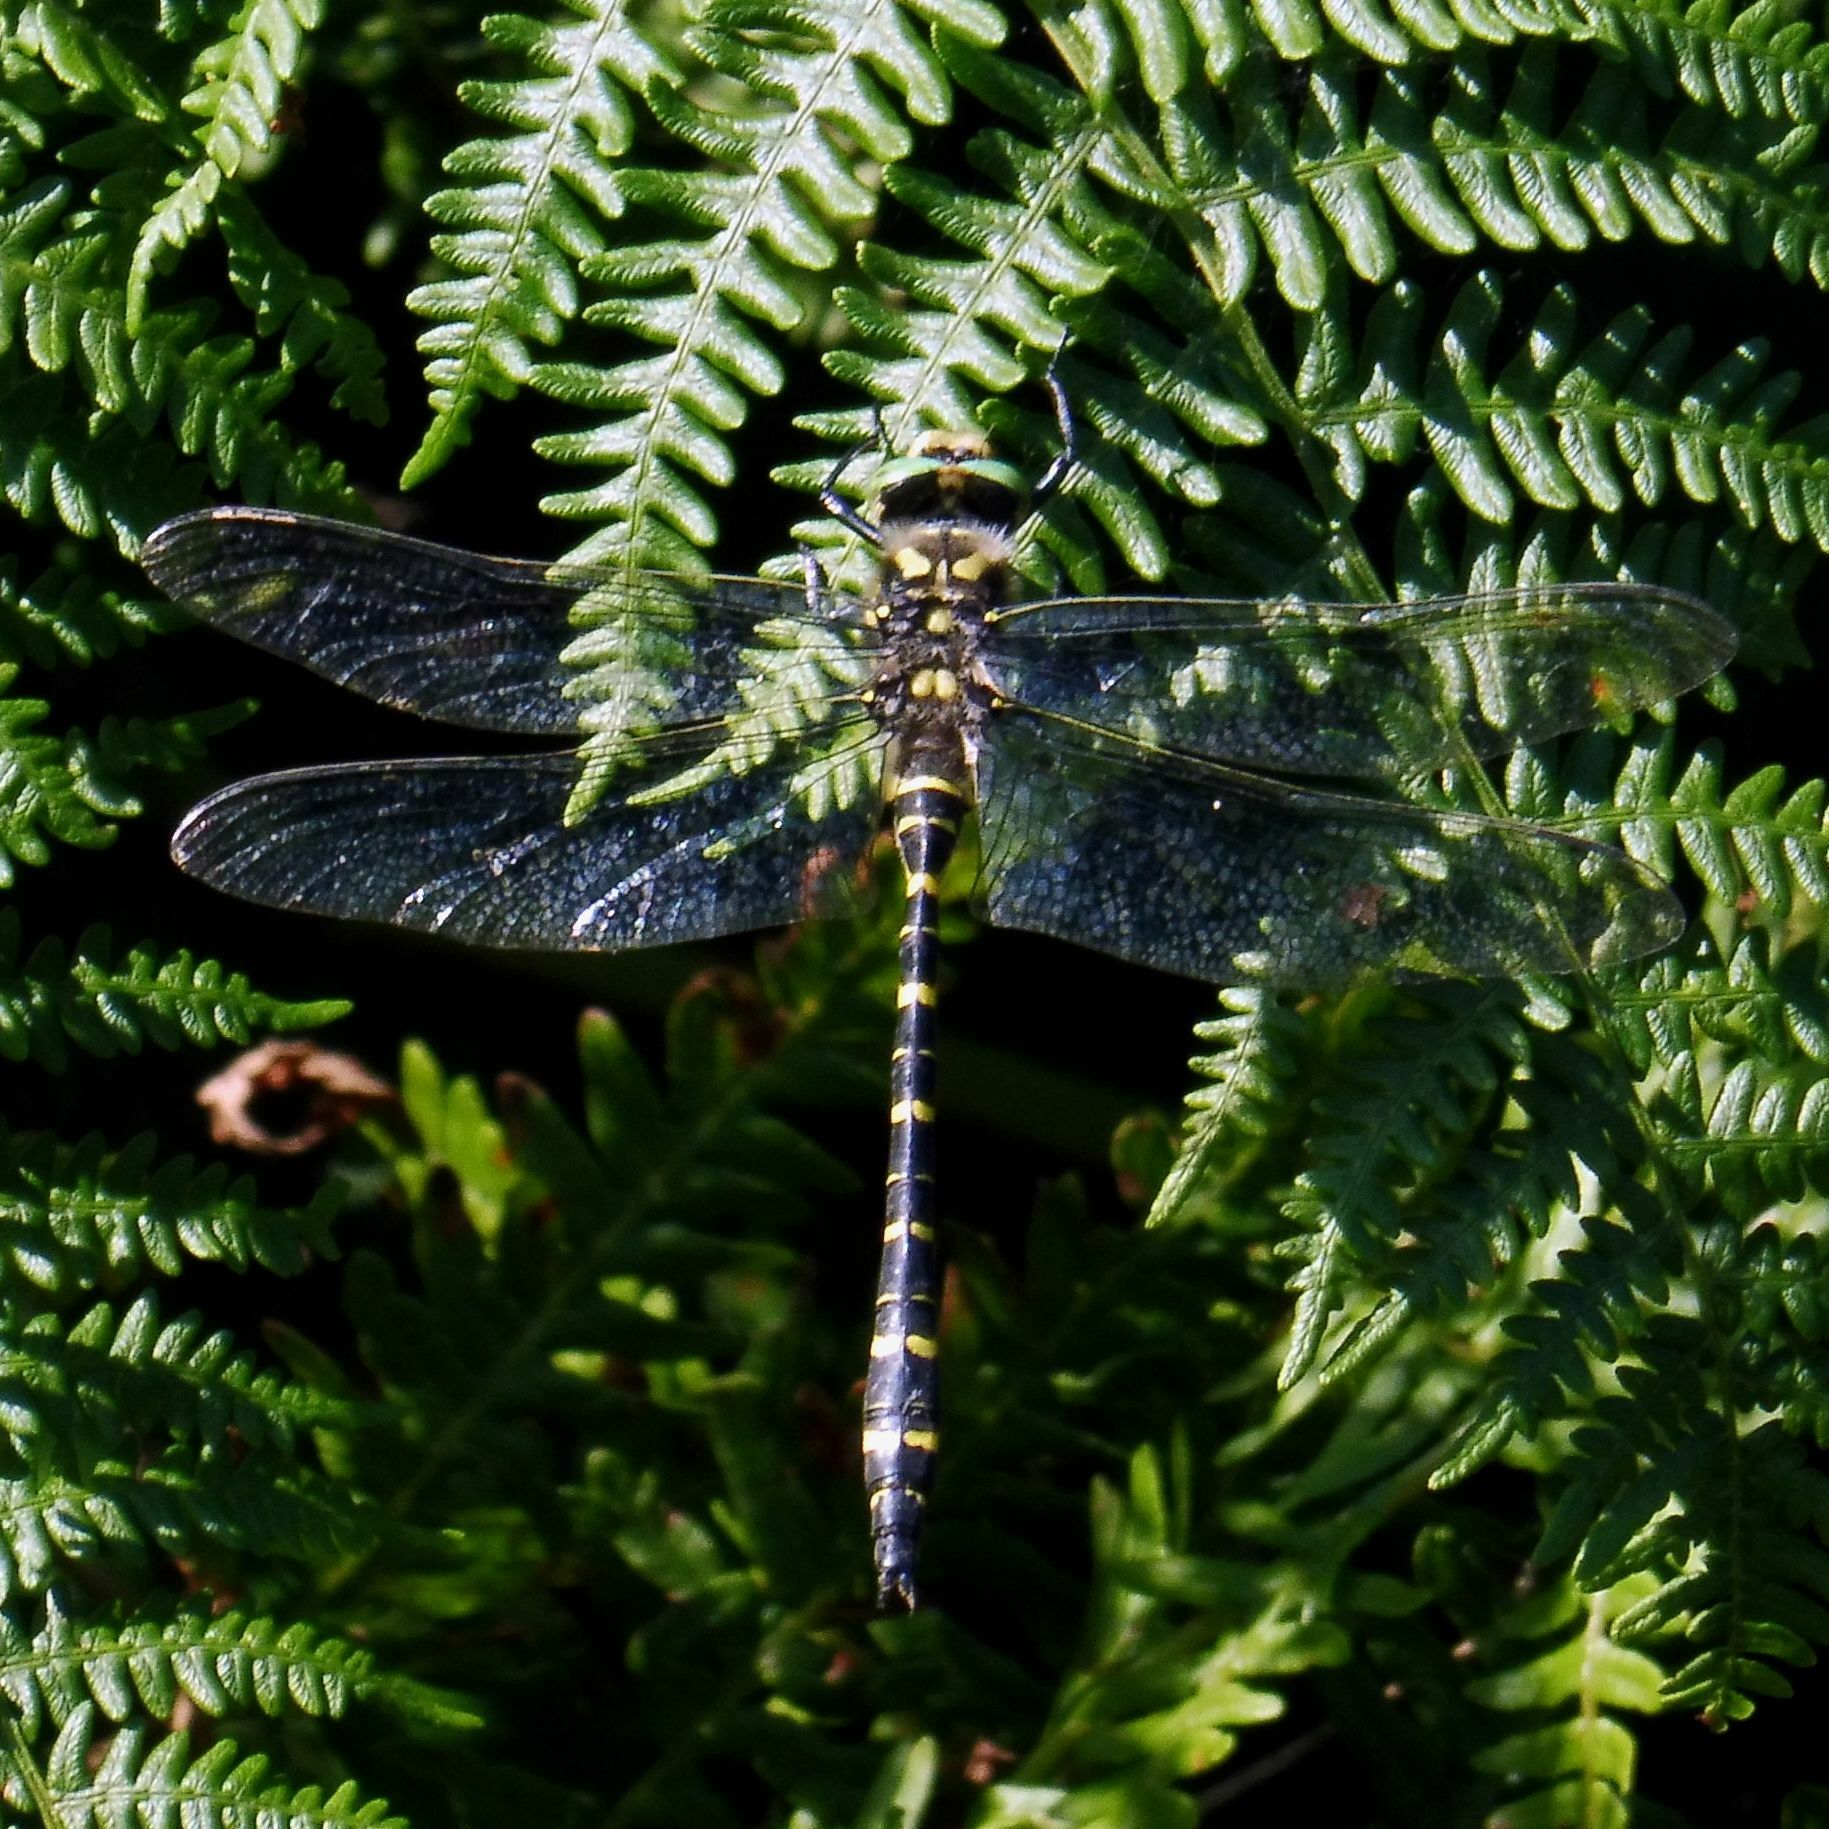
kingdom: Animalia
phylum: Arthropoda
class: Insecta
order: Odonata
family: Cordulegastridae
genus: Cordulegaster
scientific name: Cordulegaster boltonii
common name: Golden-ringed dragonfly
